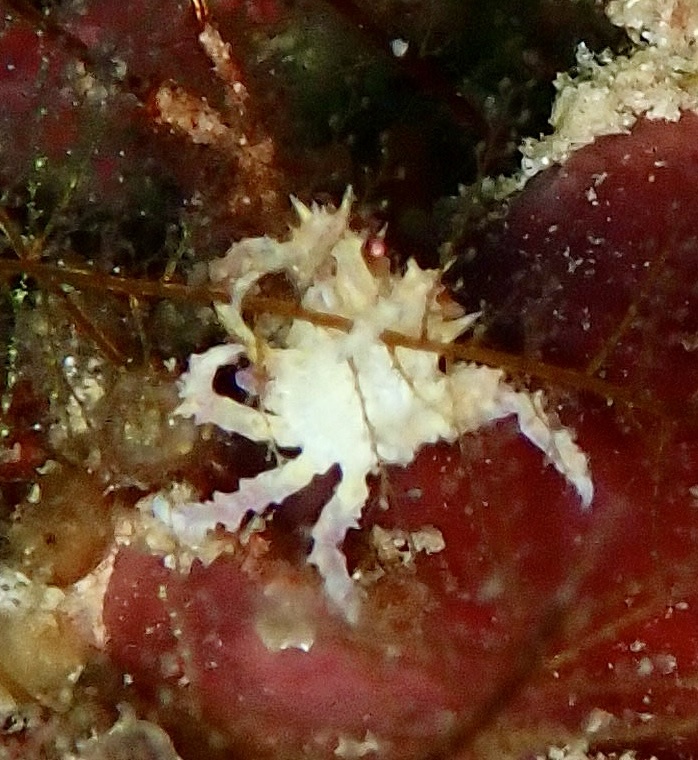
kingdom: Animalia
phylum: Arthropoda
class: Malacostraca
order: Decapoda
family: Epialtidae
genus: Hoplophrys
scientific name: Hoplophrys oatesii
